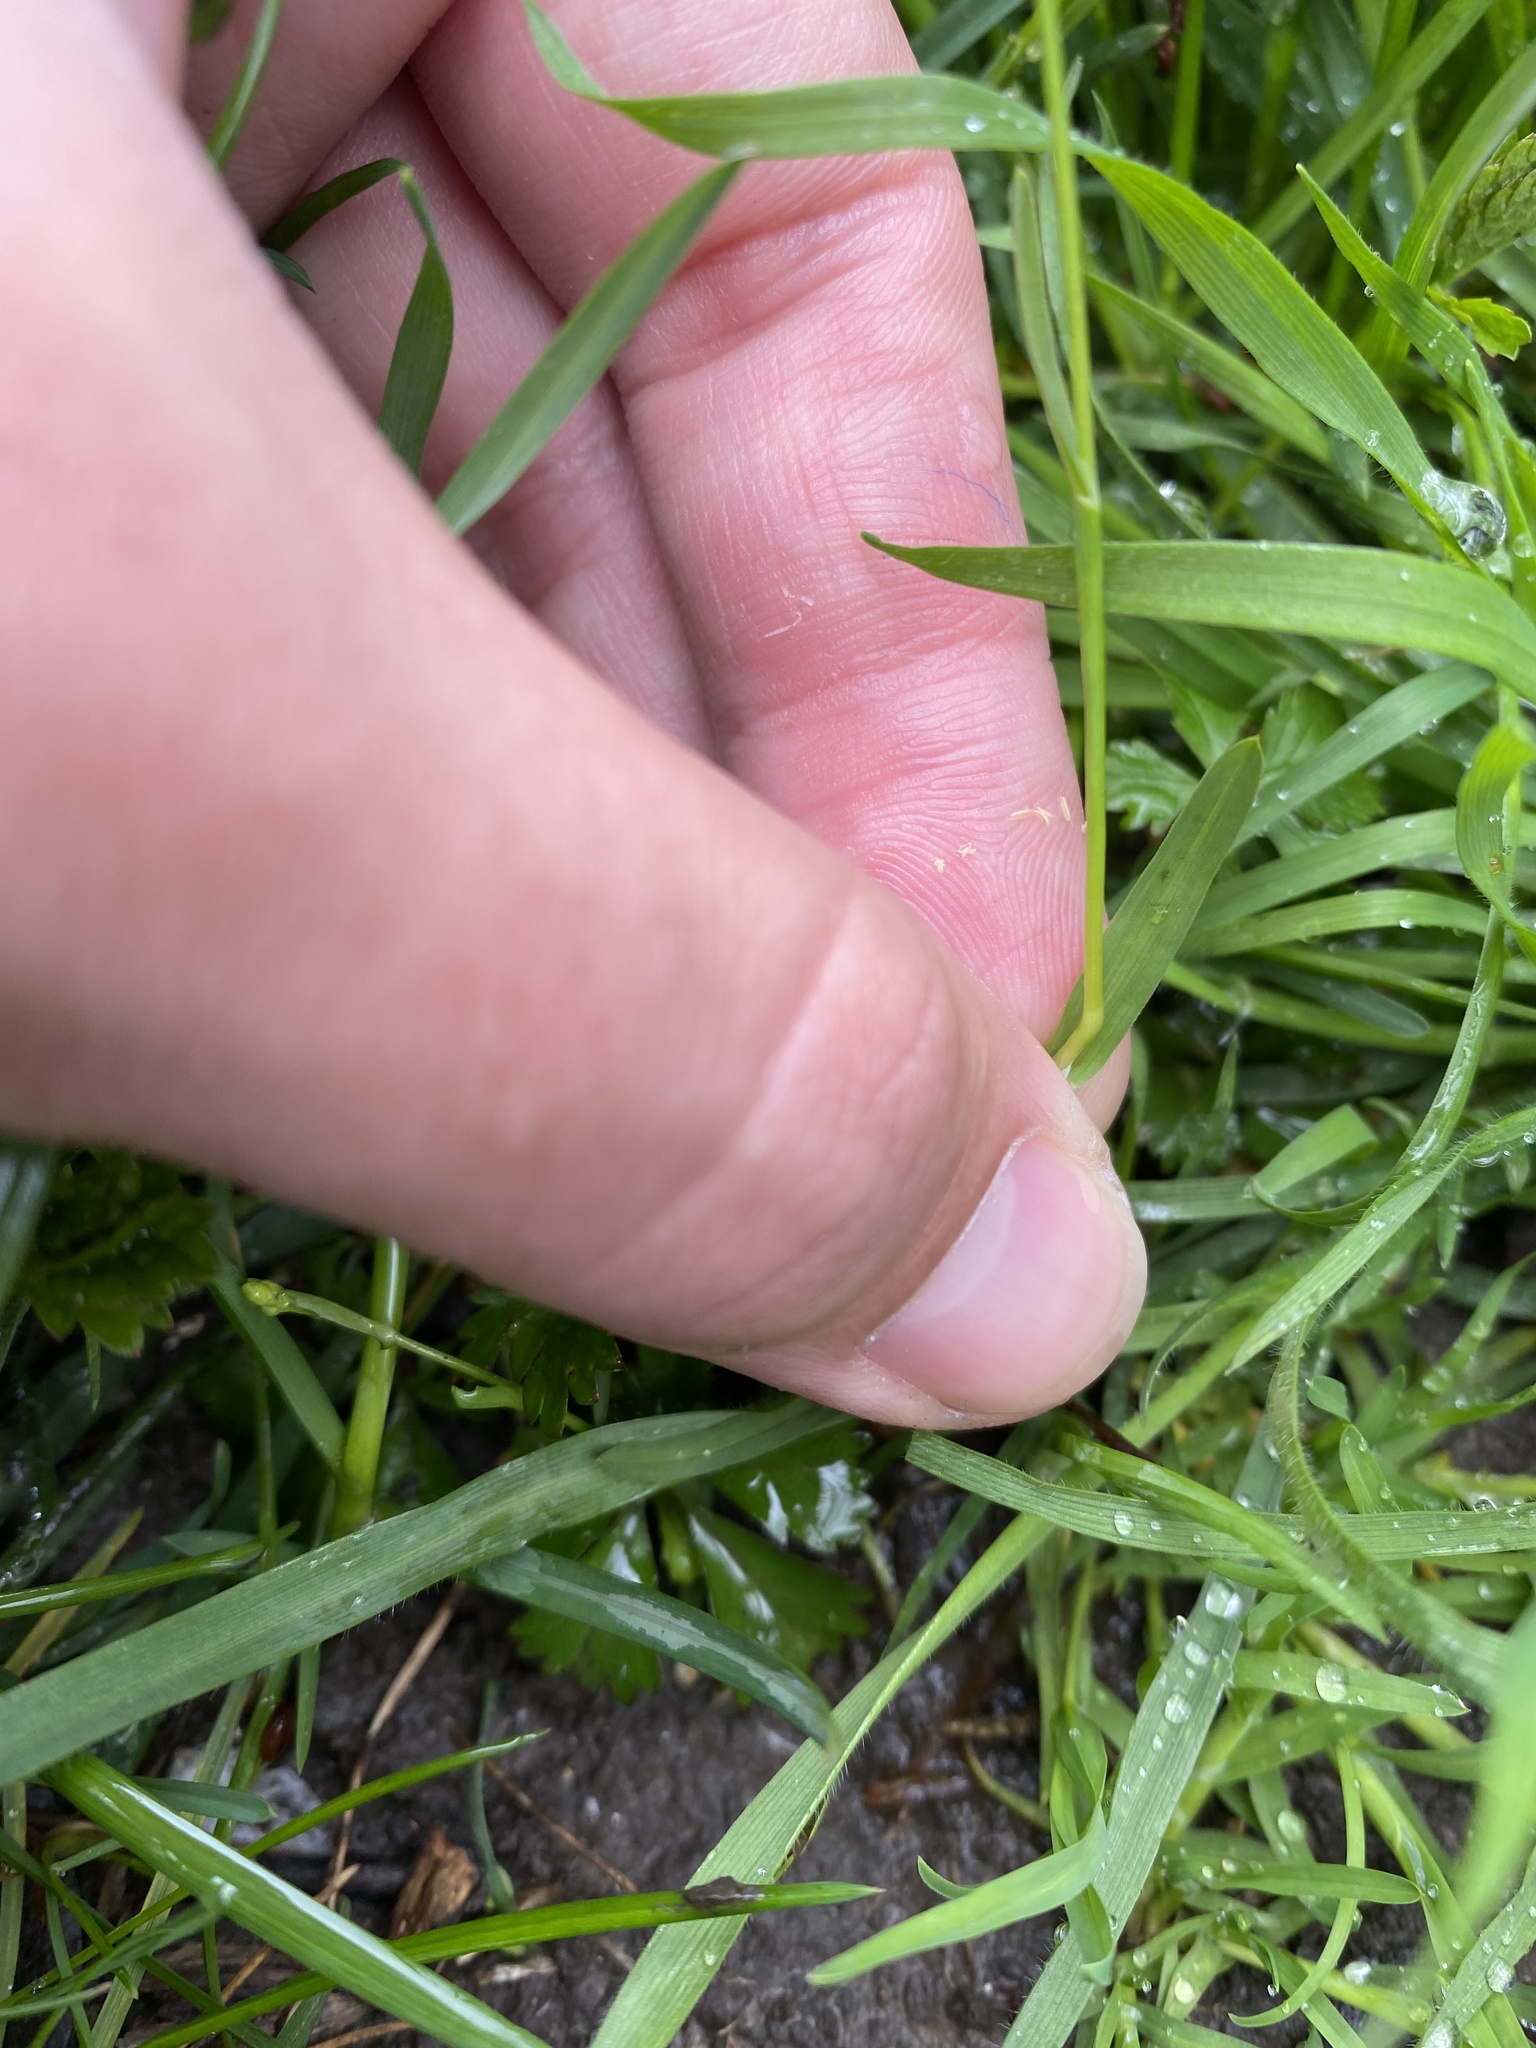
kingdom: Plantae
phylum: Tracheophyta
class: Liliopsida
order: Poales
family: Poaceae
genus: Poa
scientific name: Poa annua
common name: Annual bluegrass
